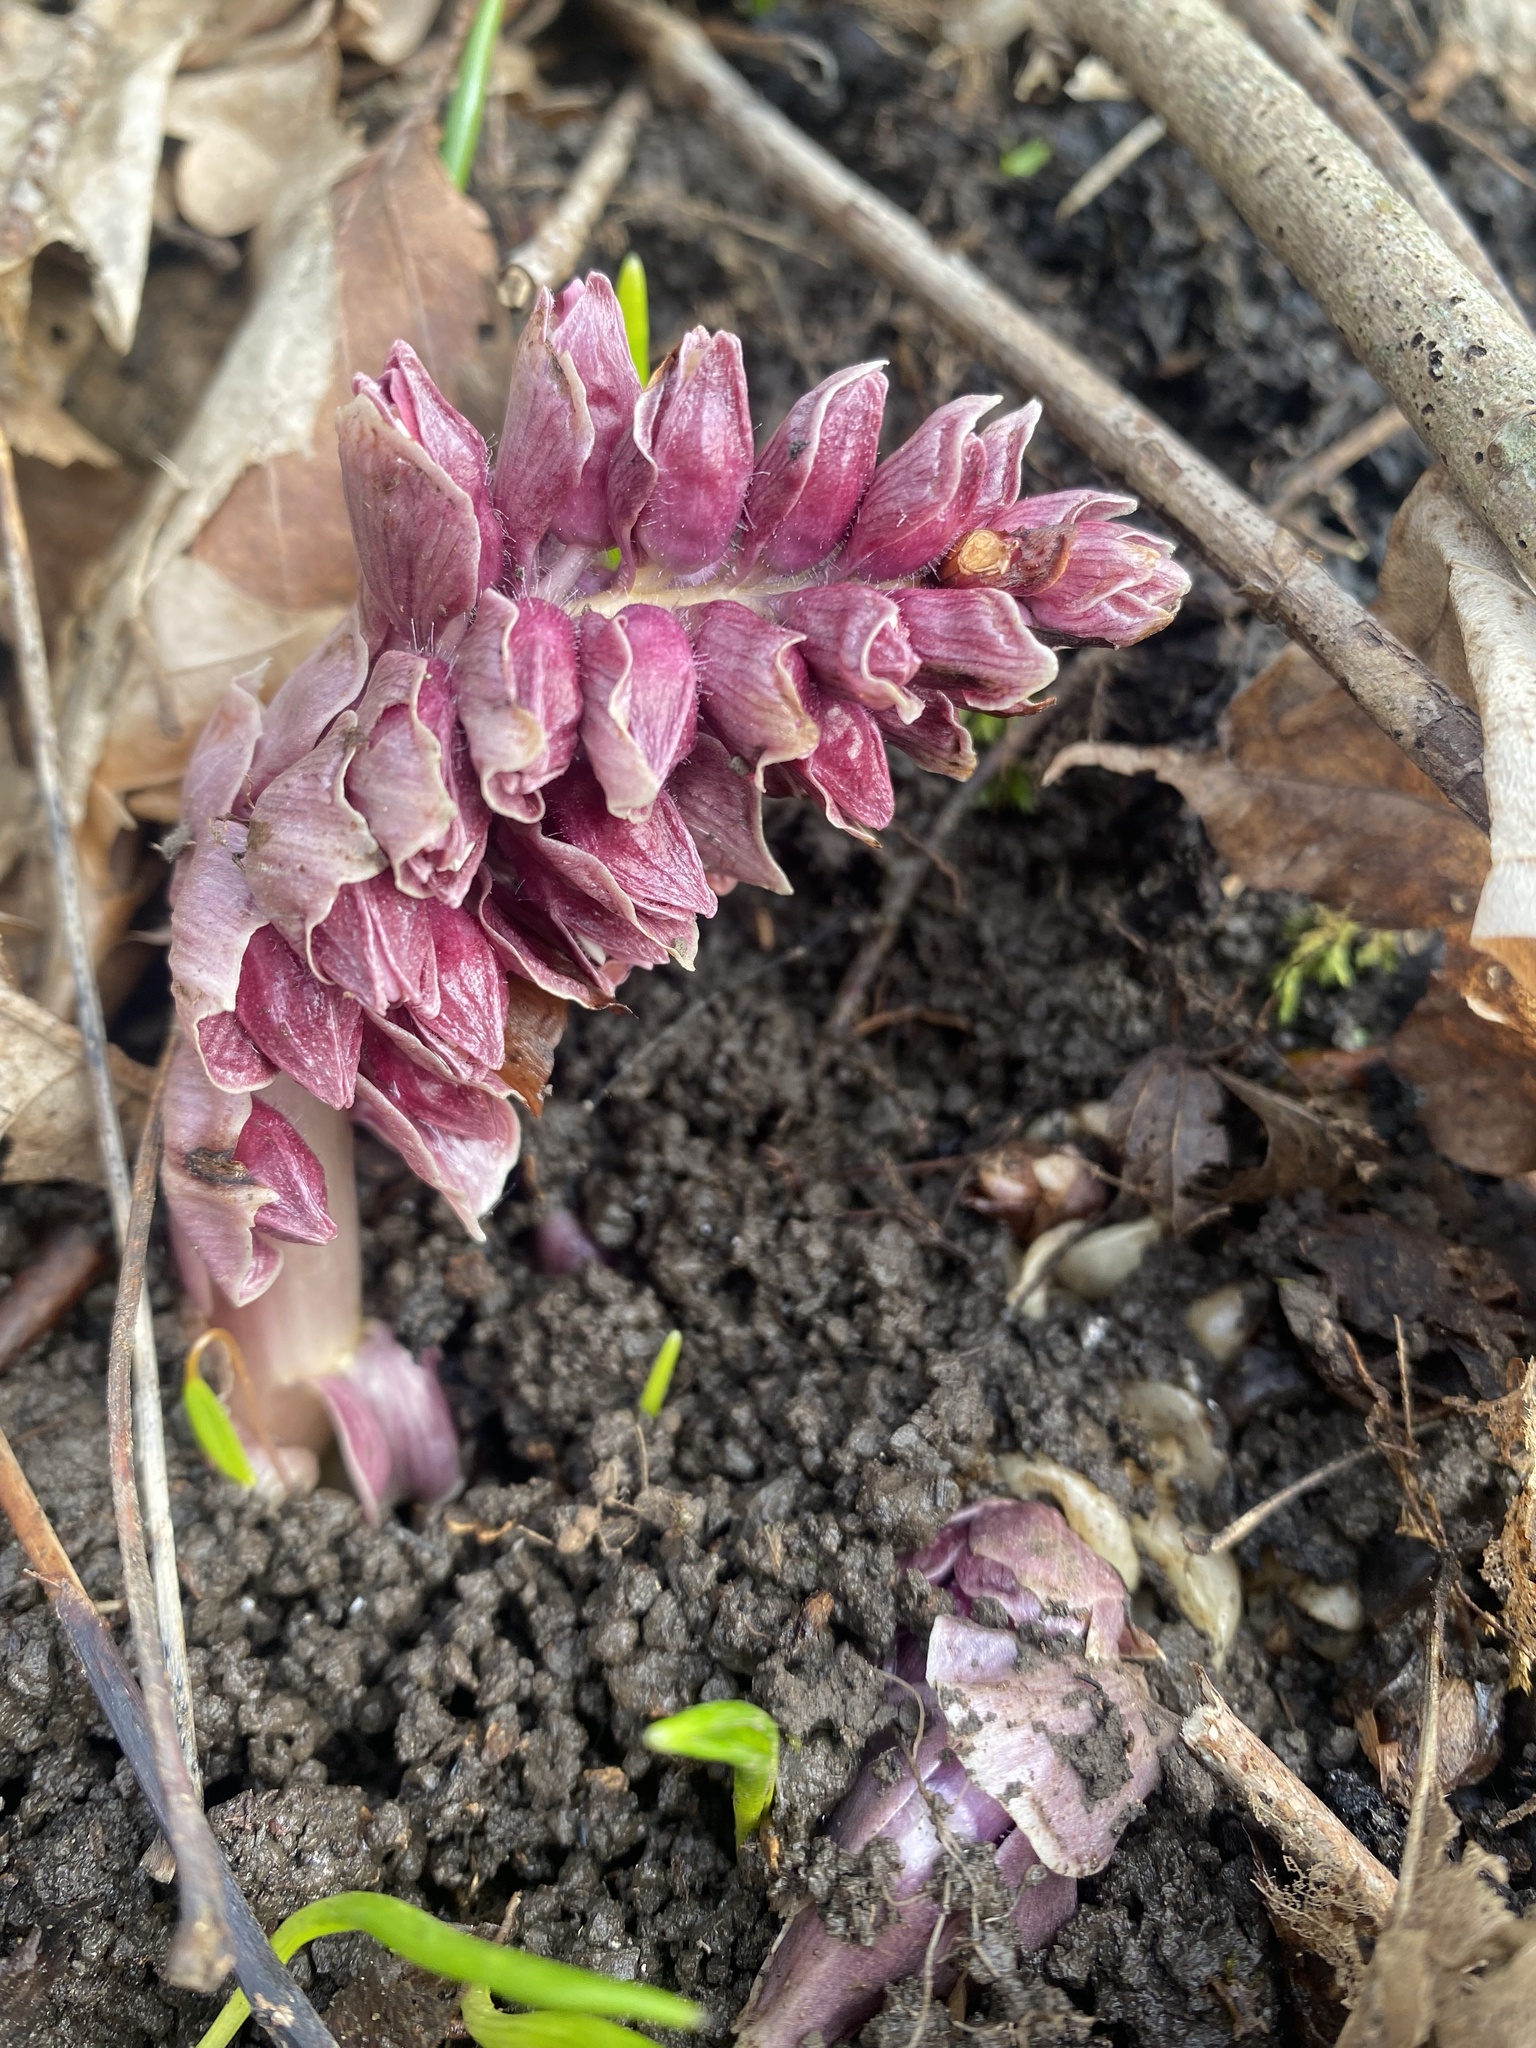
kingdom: Plantae
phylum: Tracheophyta
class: Magnoliopsida
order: Lamiales
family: Orobanchaceae
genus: Lathraea
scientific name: Lathraea squamaria
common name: Toothwort
